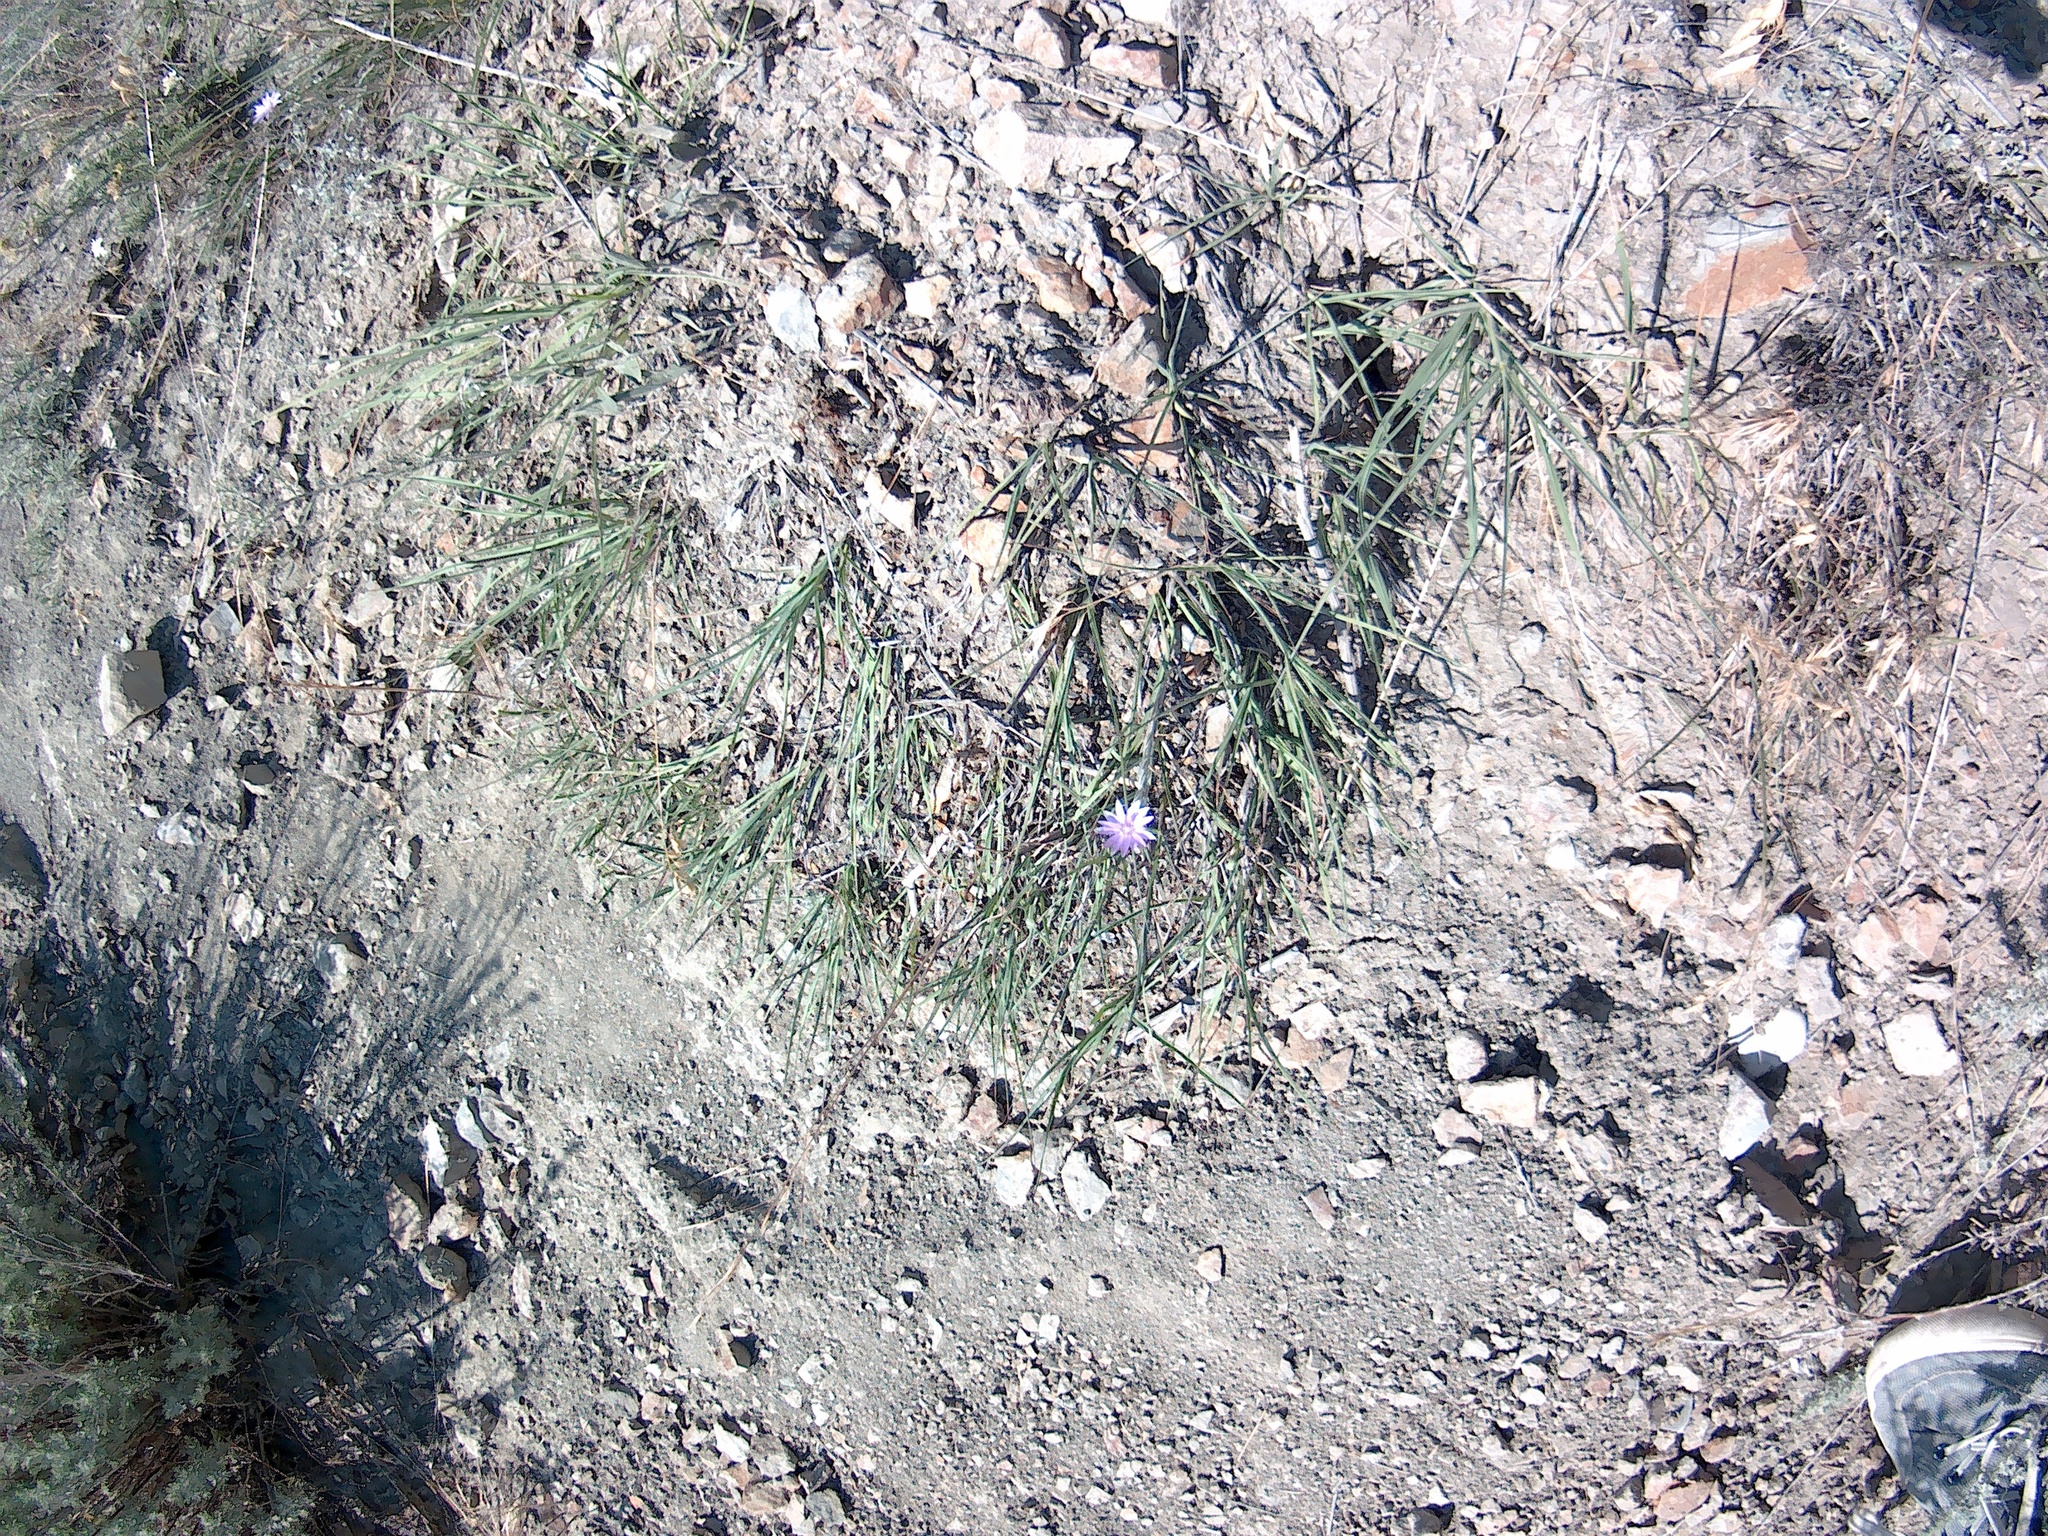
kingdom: Plantae
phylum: Tracheophyta
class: Magnoliopsida
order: Asterales
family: Asteraceae
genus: Xeranthemum
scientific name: Xeranthemum annuum
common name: Immortelle
